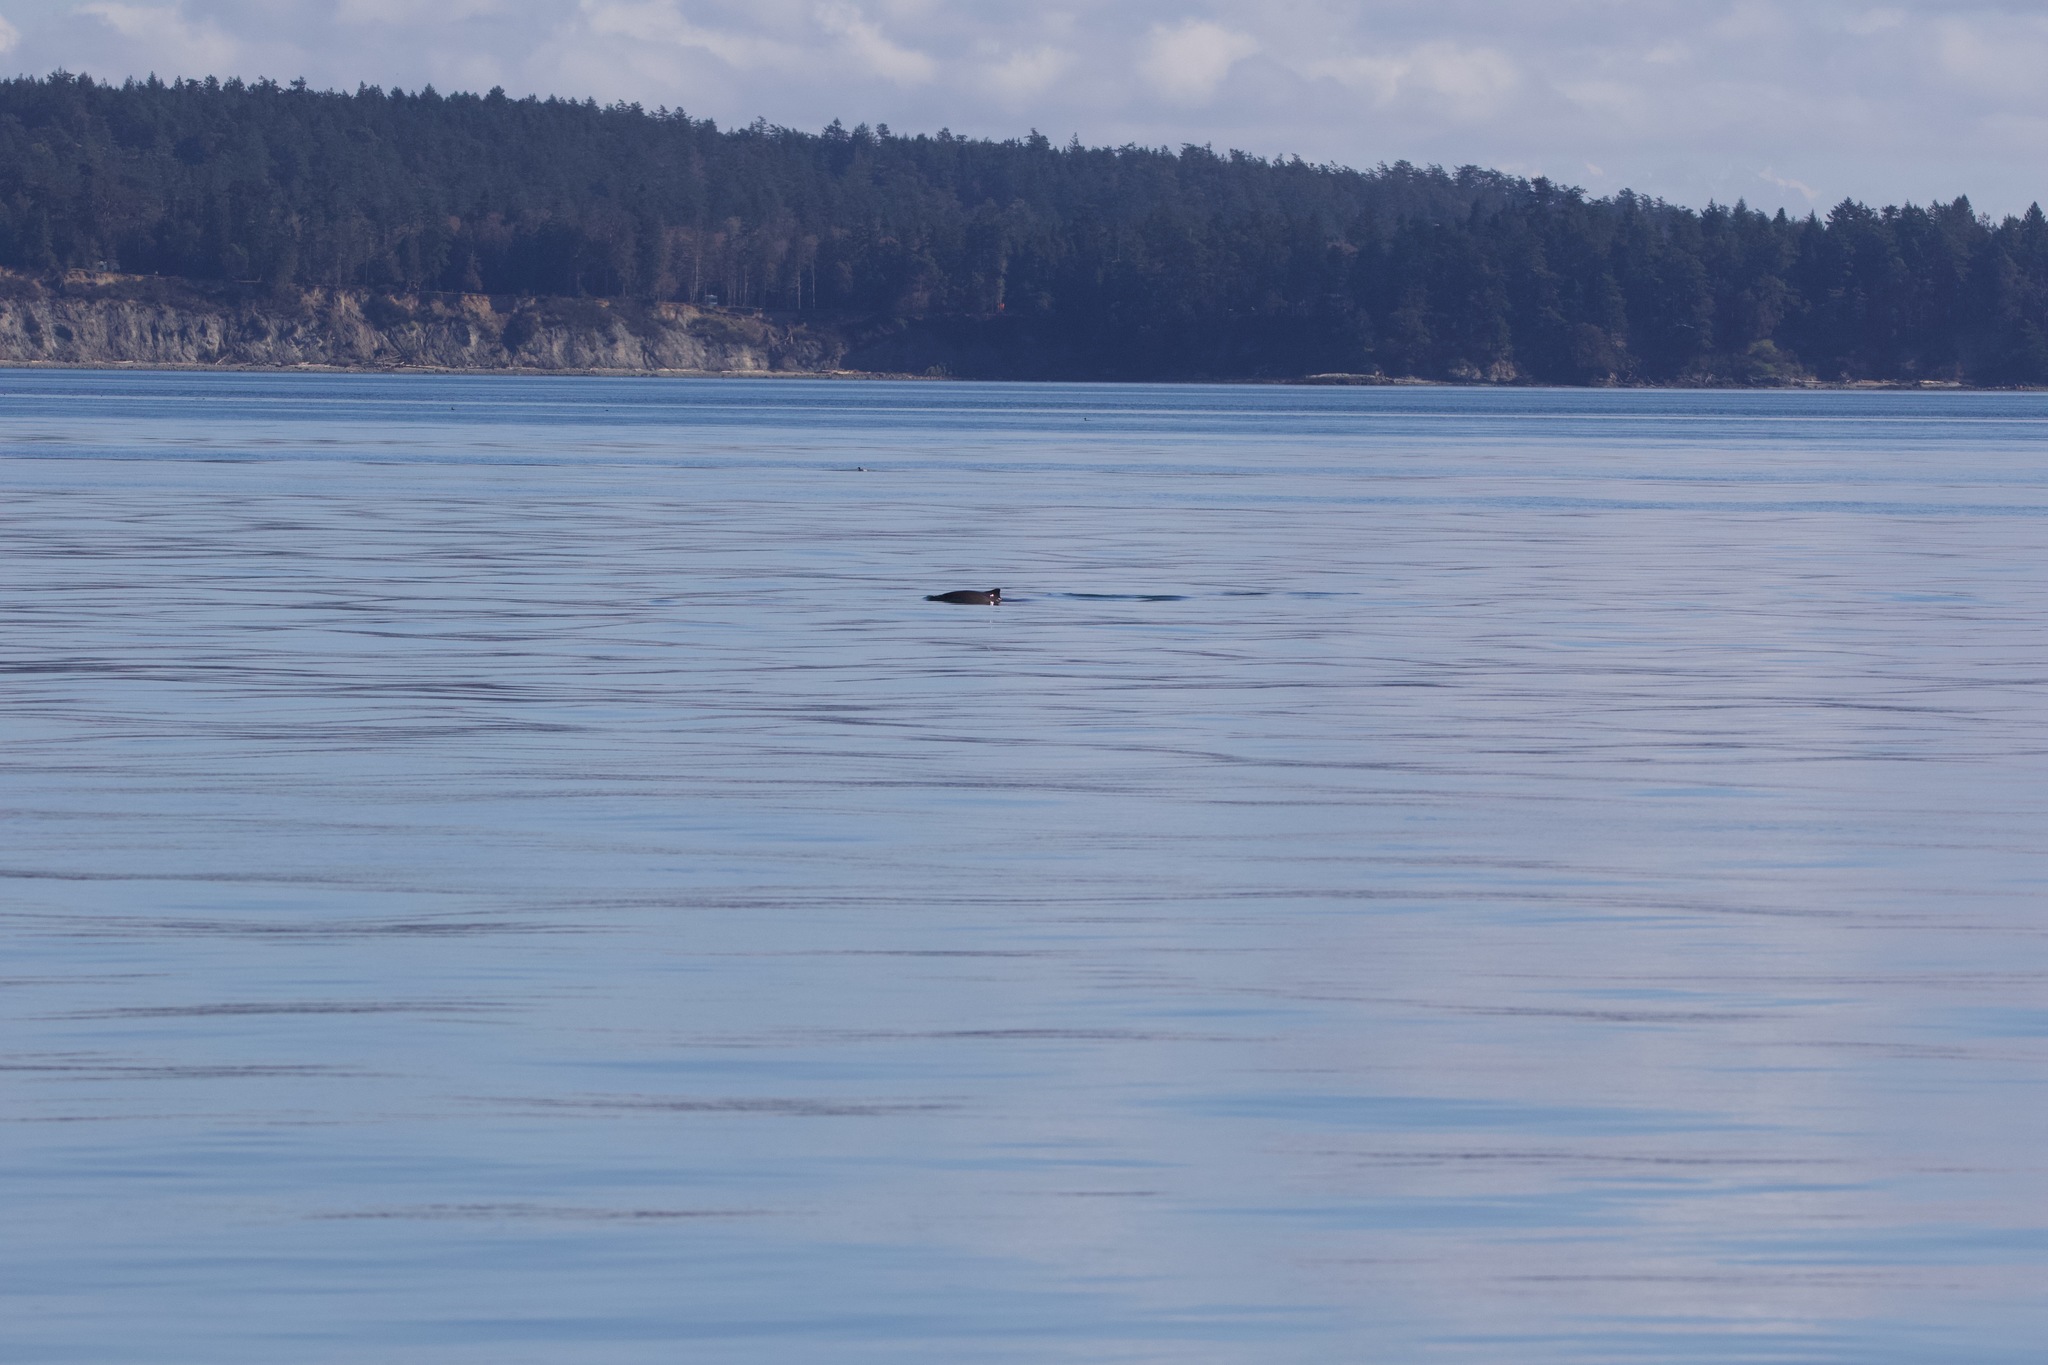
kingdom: Animalia
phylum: Chordata
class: Mammalia
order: Cetacea
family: Phocoenidae
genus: Phocoena
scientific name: Phocoena phocoena
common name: Harbor porpoise
